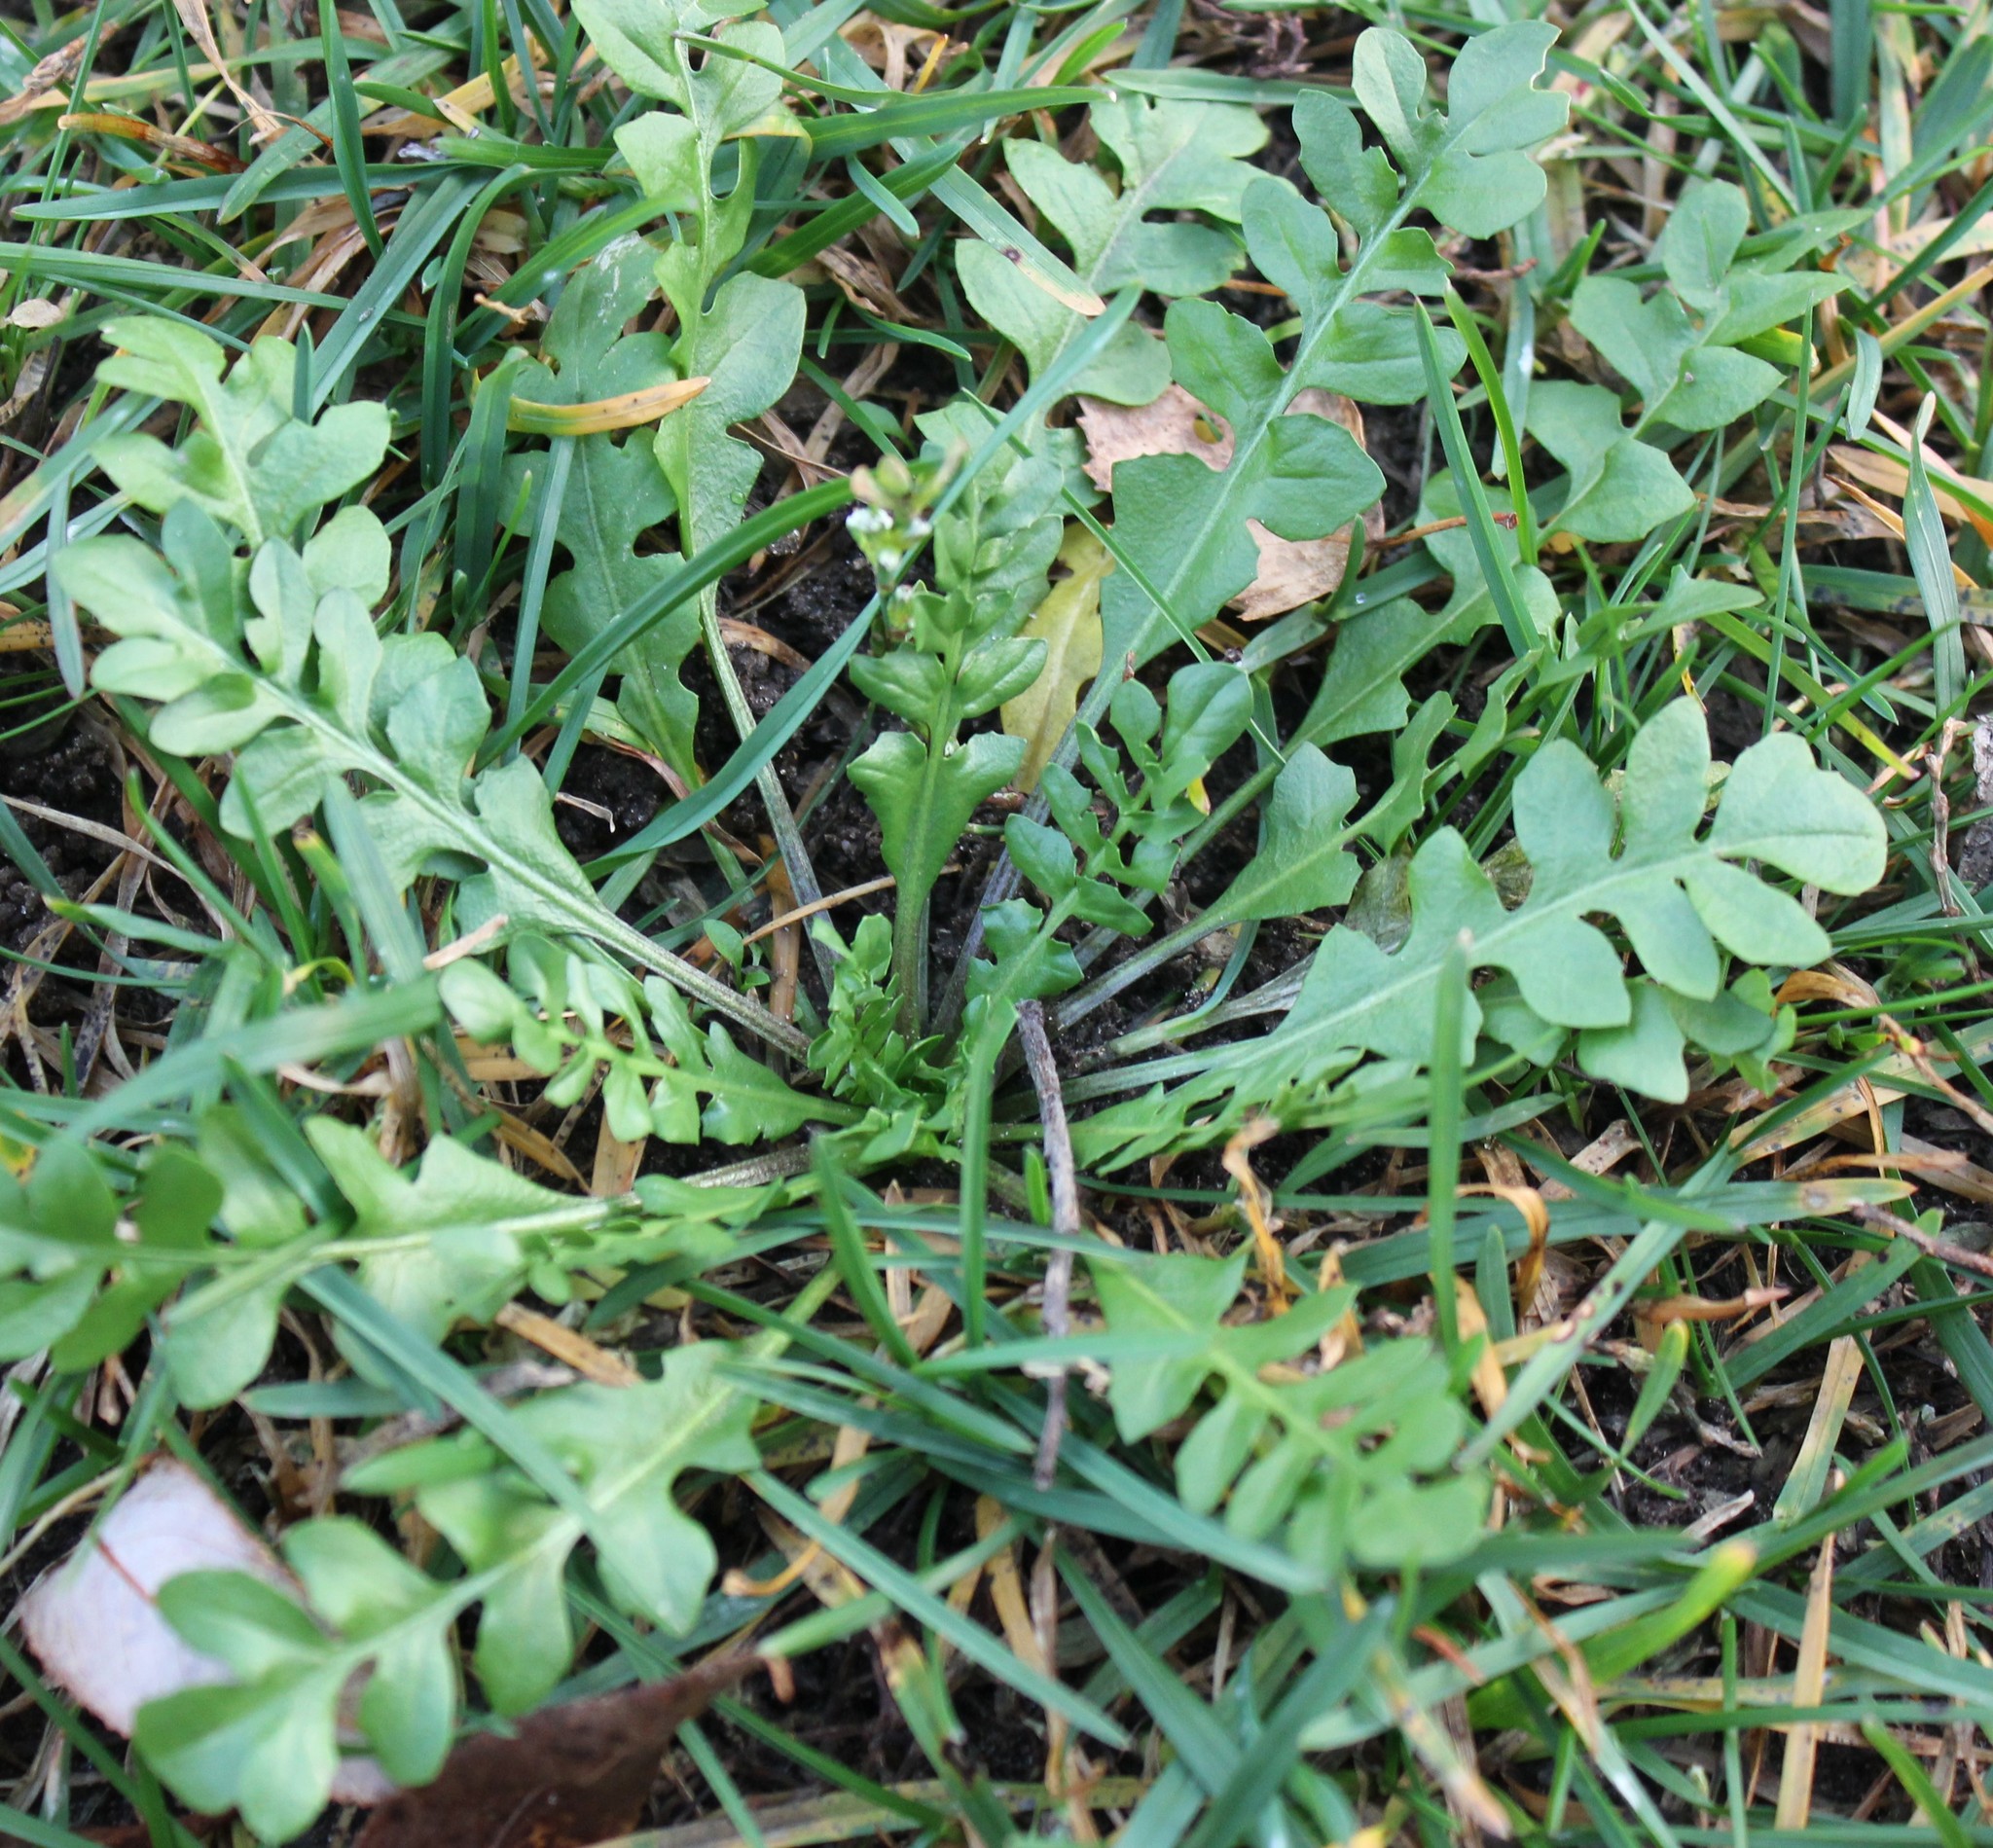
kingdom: Plantae
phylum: Tracheophyta
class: Magnoliopsida
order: Brassicales
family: Brassicaceae
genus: Capsella
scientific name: Capsella bursa-pastoris
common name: Shepherd's purse
